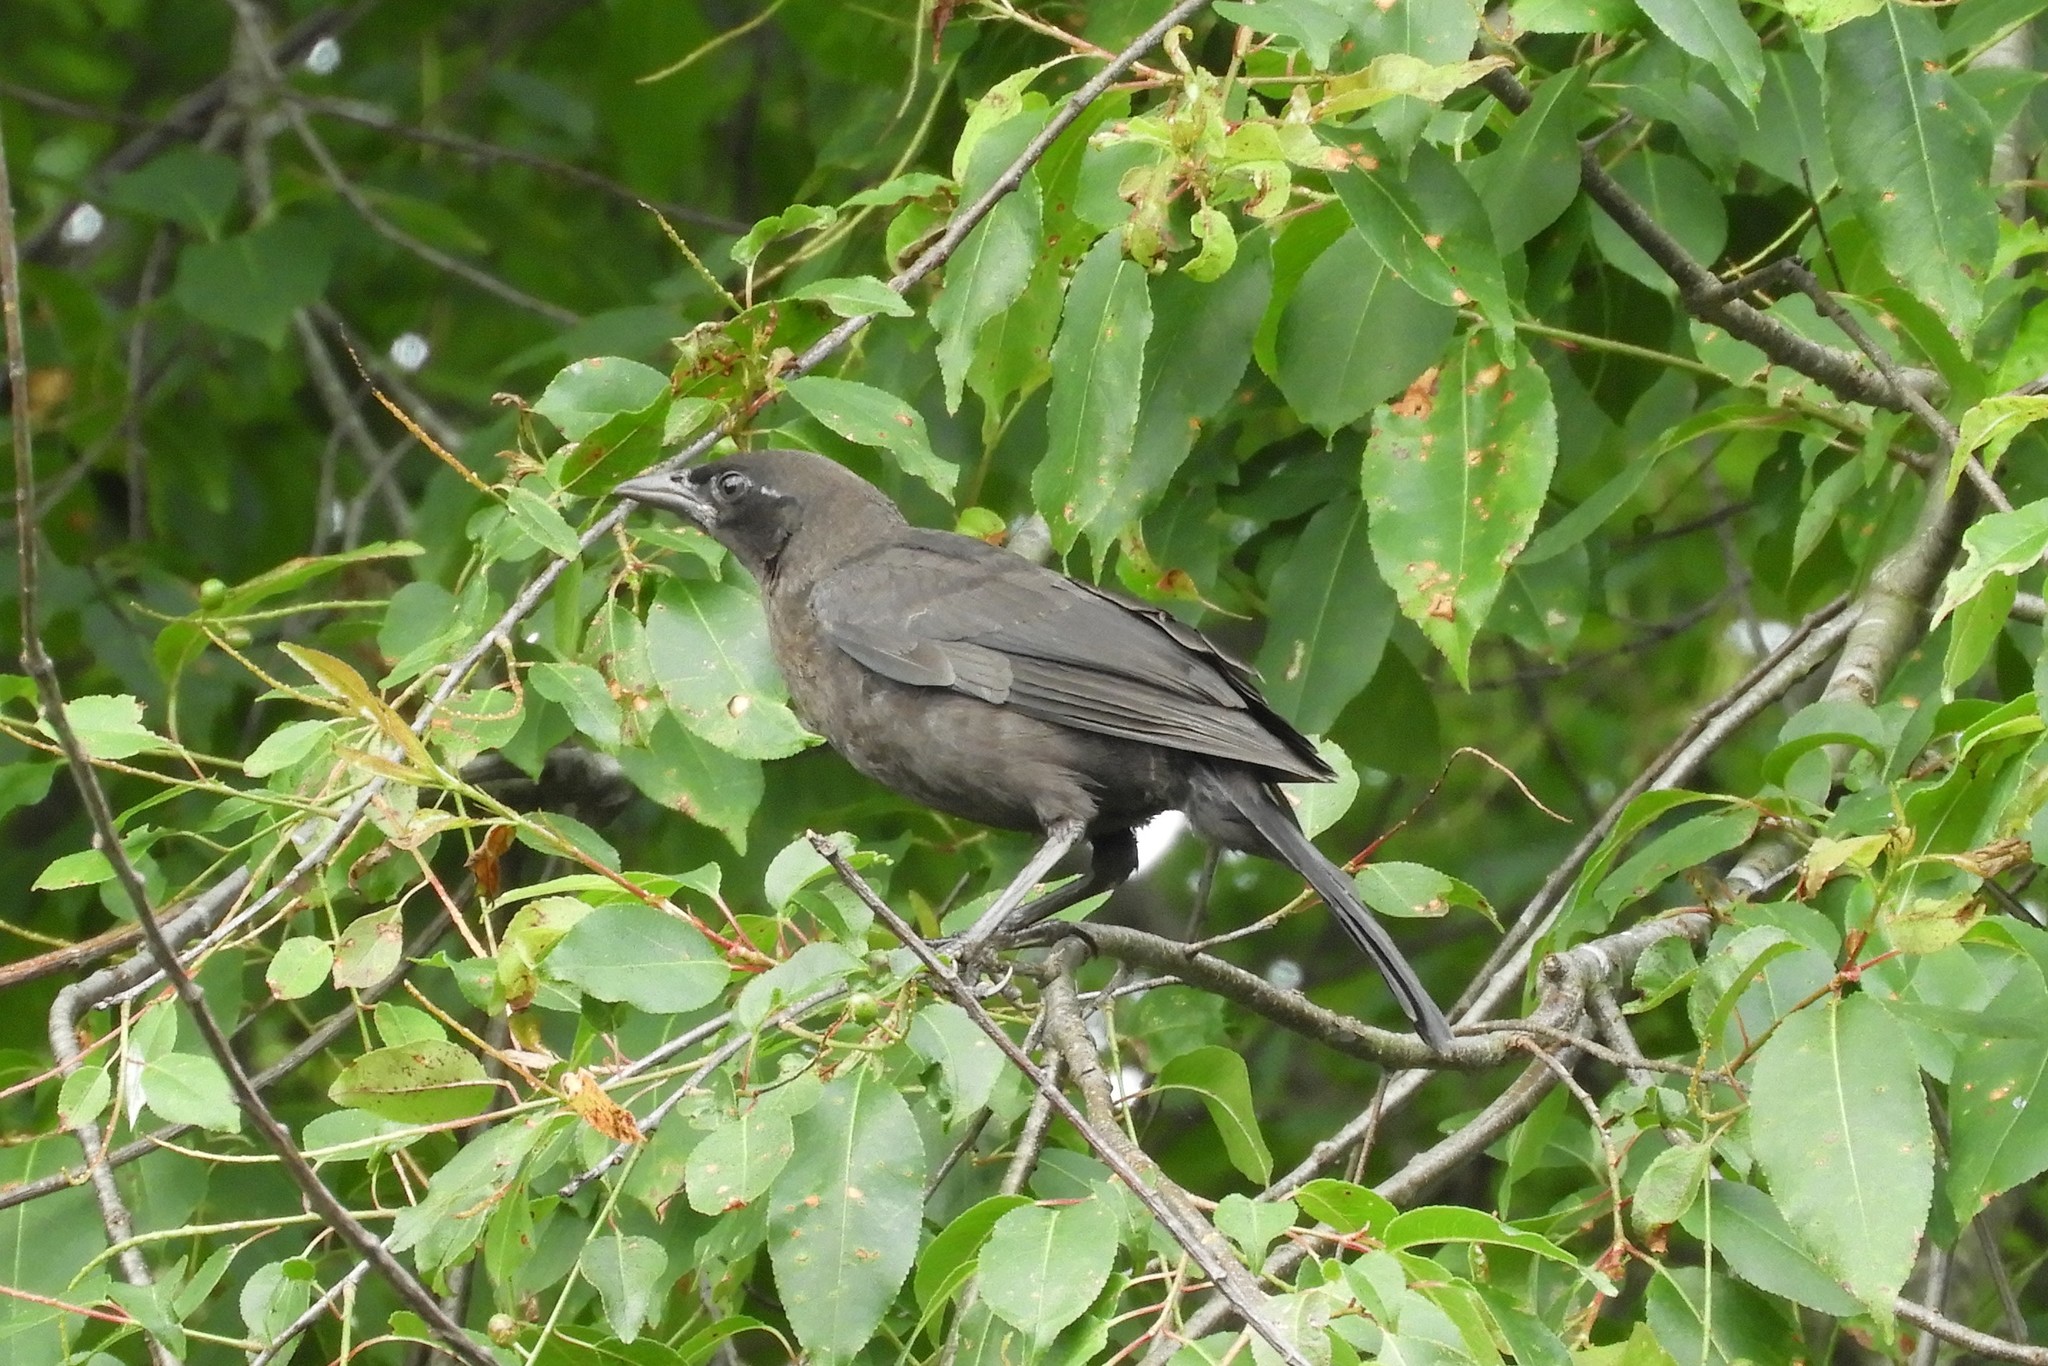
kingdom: Animalia
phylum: Chordata
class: Aves
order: Passeriformes
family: Icteridae
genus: Quiscalus
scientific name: Quiscalus quiscula
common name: Common grackle
